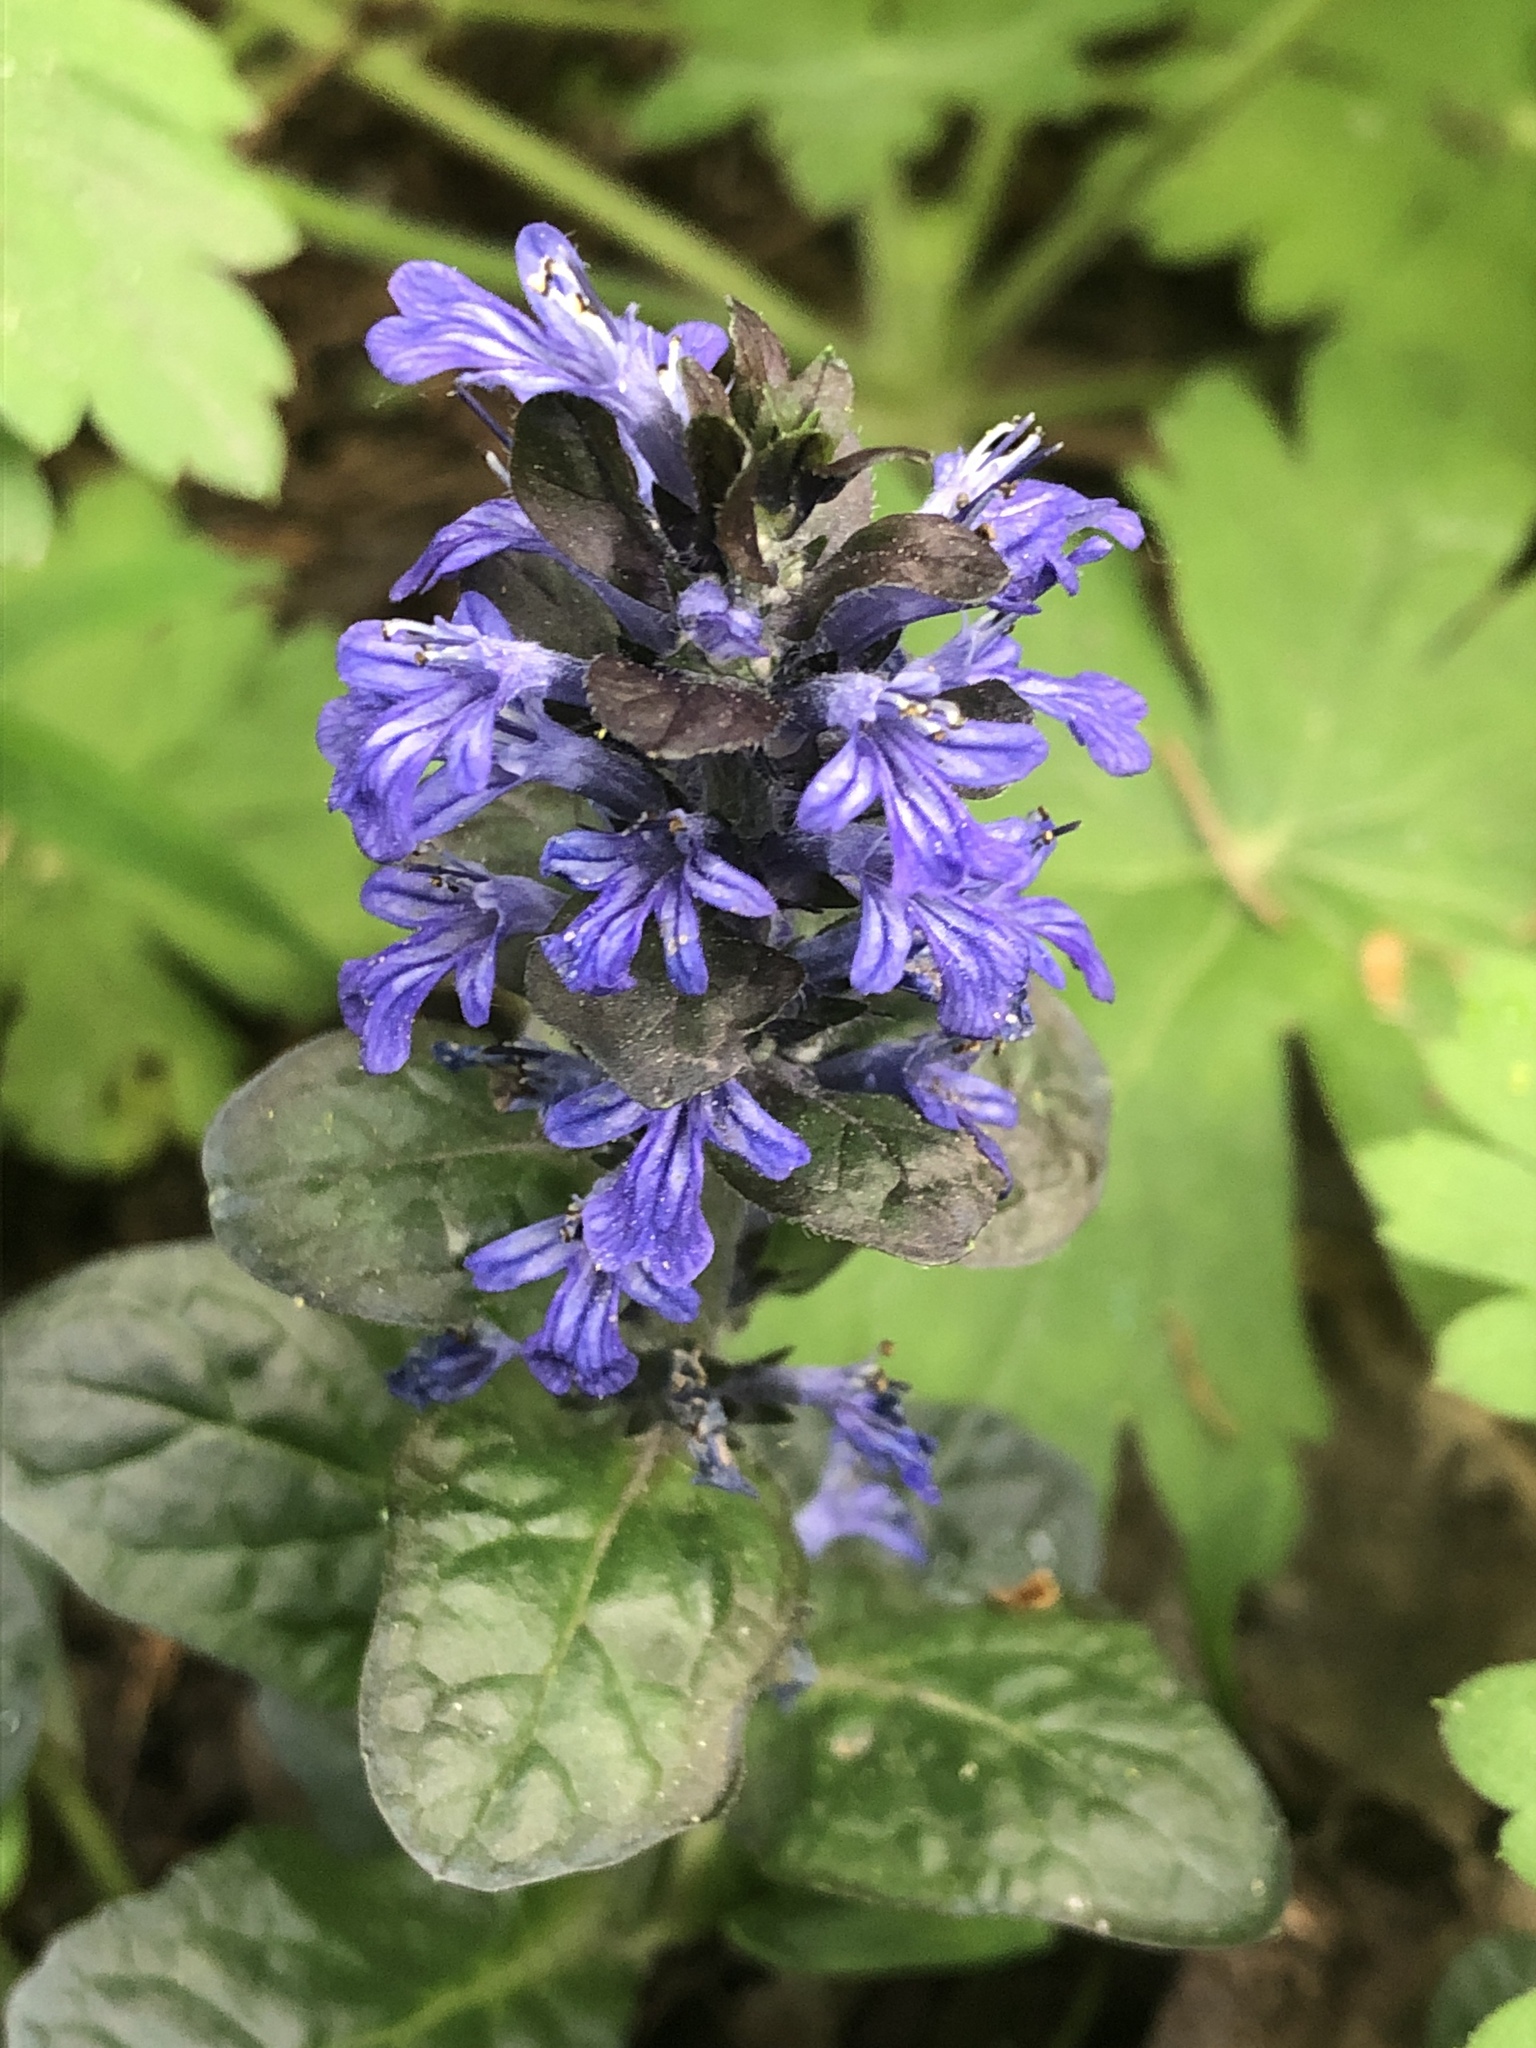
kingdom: Plantae
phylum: Tracheophyta
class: Magnoliopsida
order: Lamiales
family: Lamiaceae
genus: Ajuga
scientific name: Ajuga reptans
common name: Bugle
